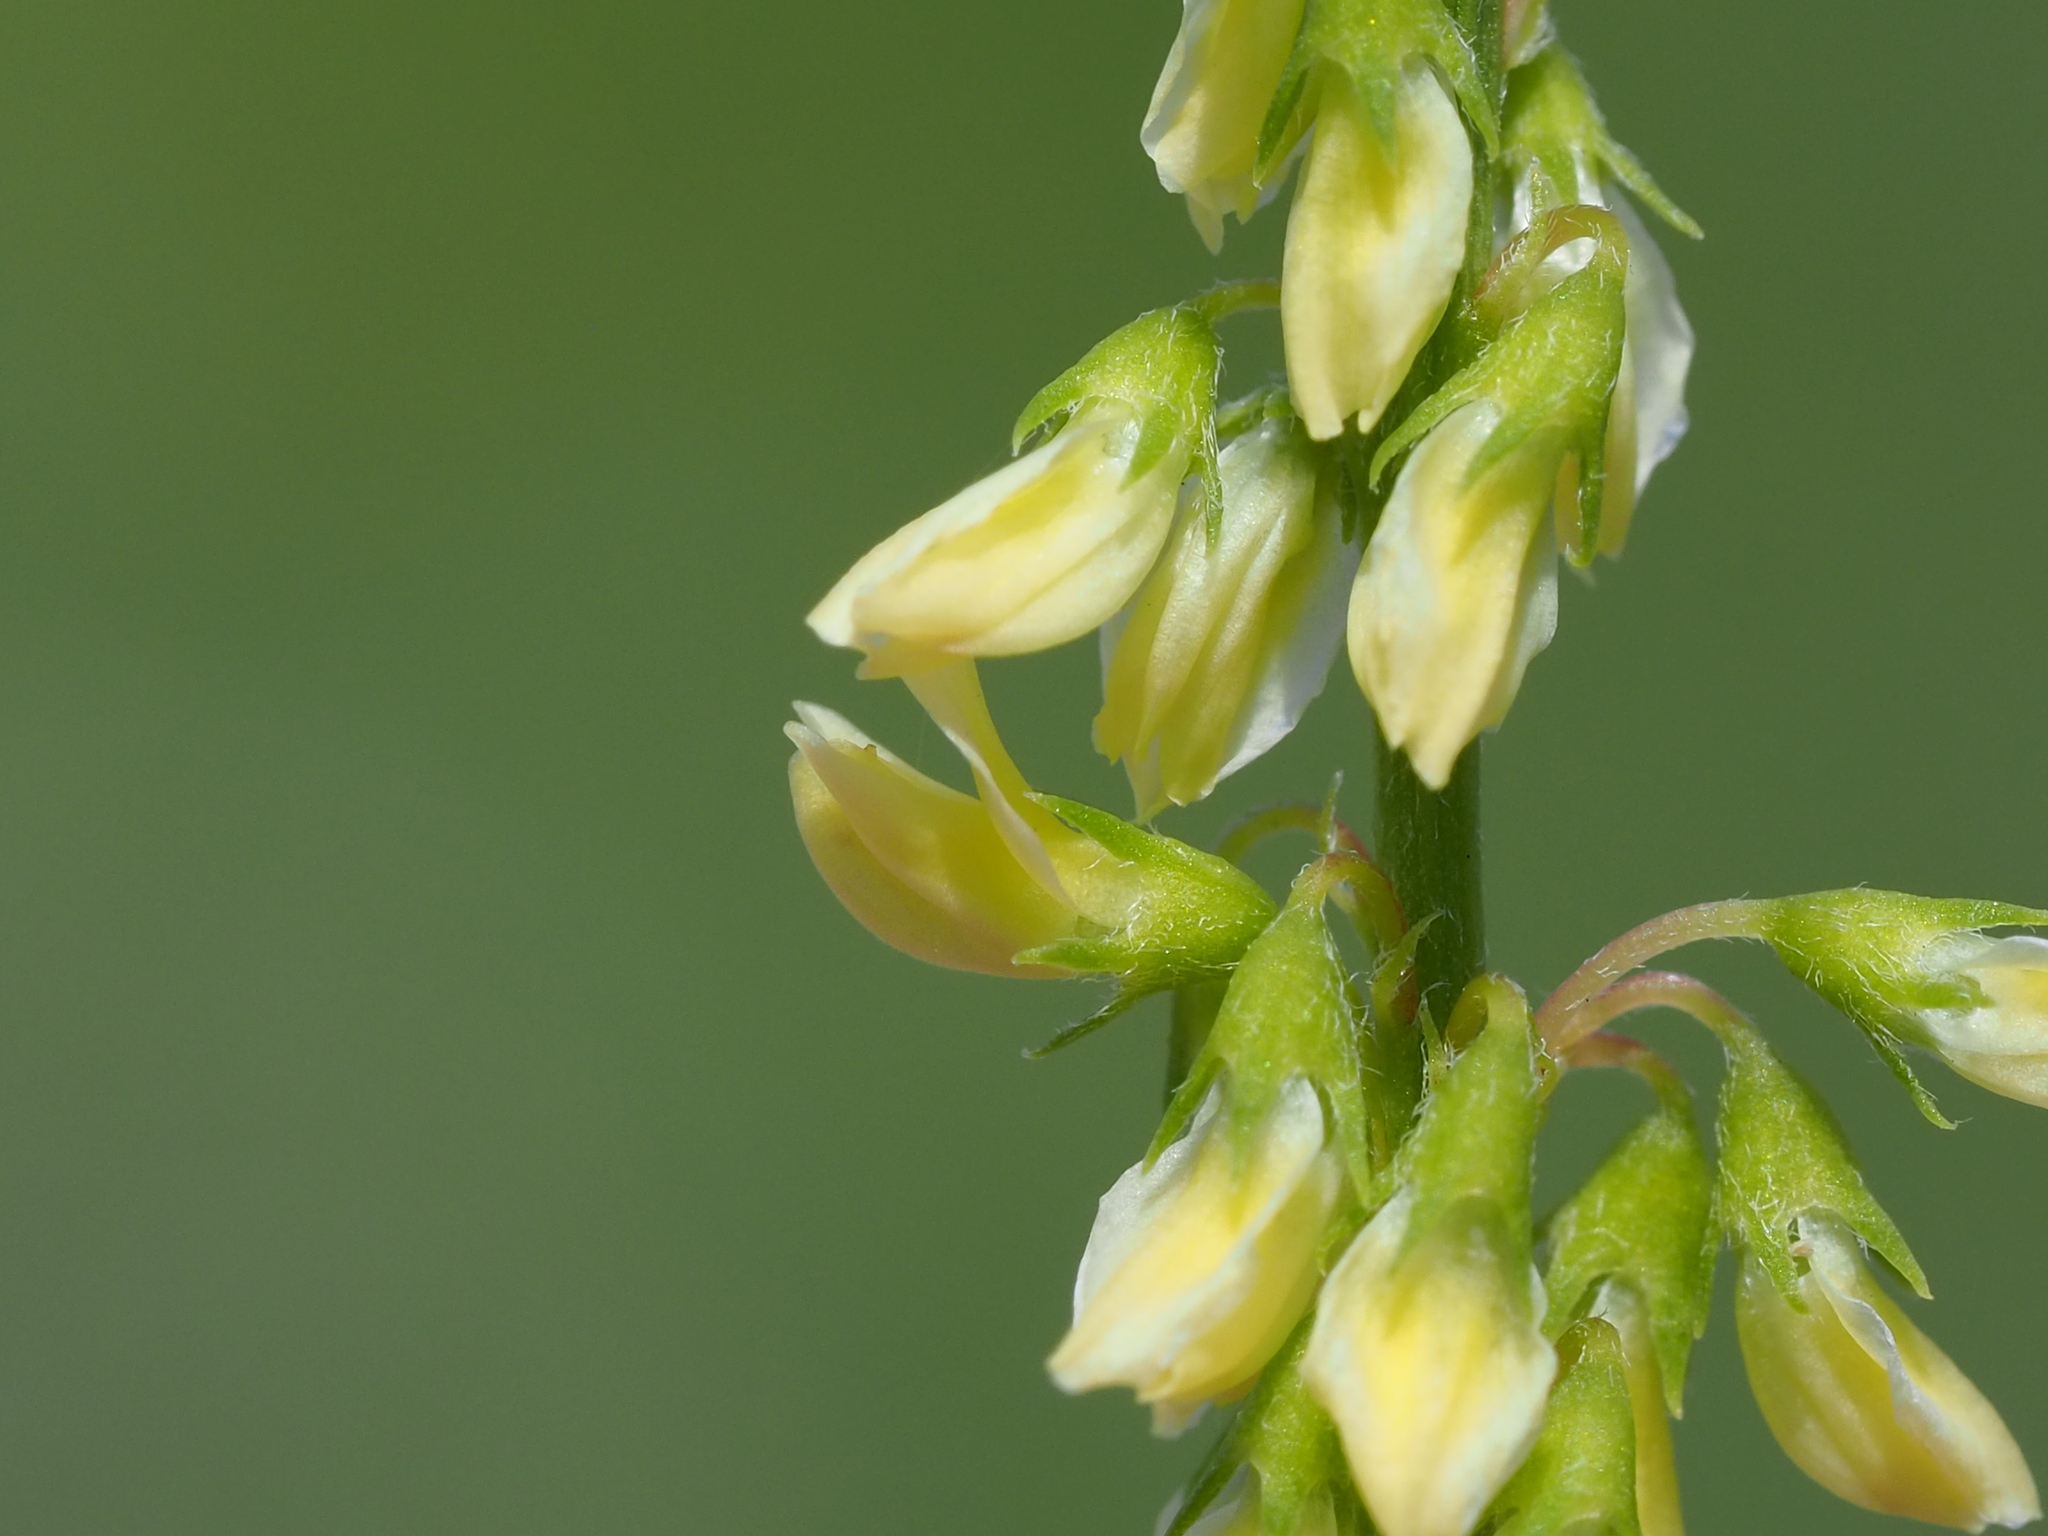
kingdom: Plantae
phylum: Tracheophyta
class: Magnoliopsida
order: Fabales
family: Fabaceae
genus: Melilotus
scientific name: Melilotus indicus
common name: Small melilot
